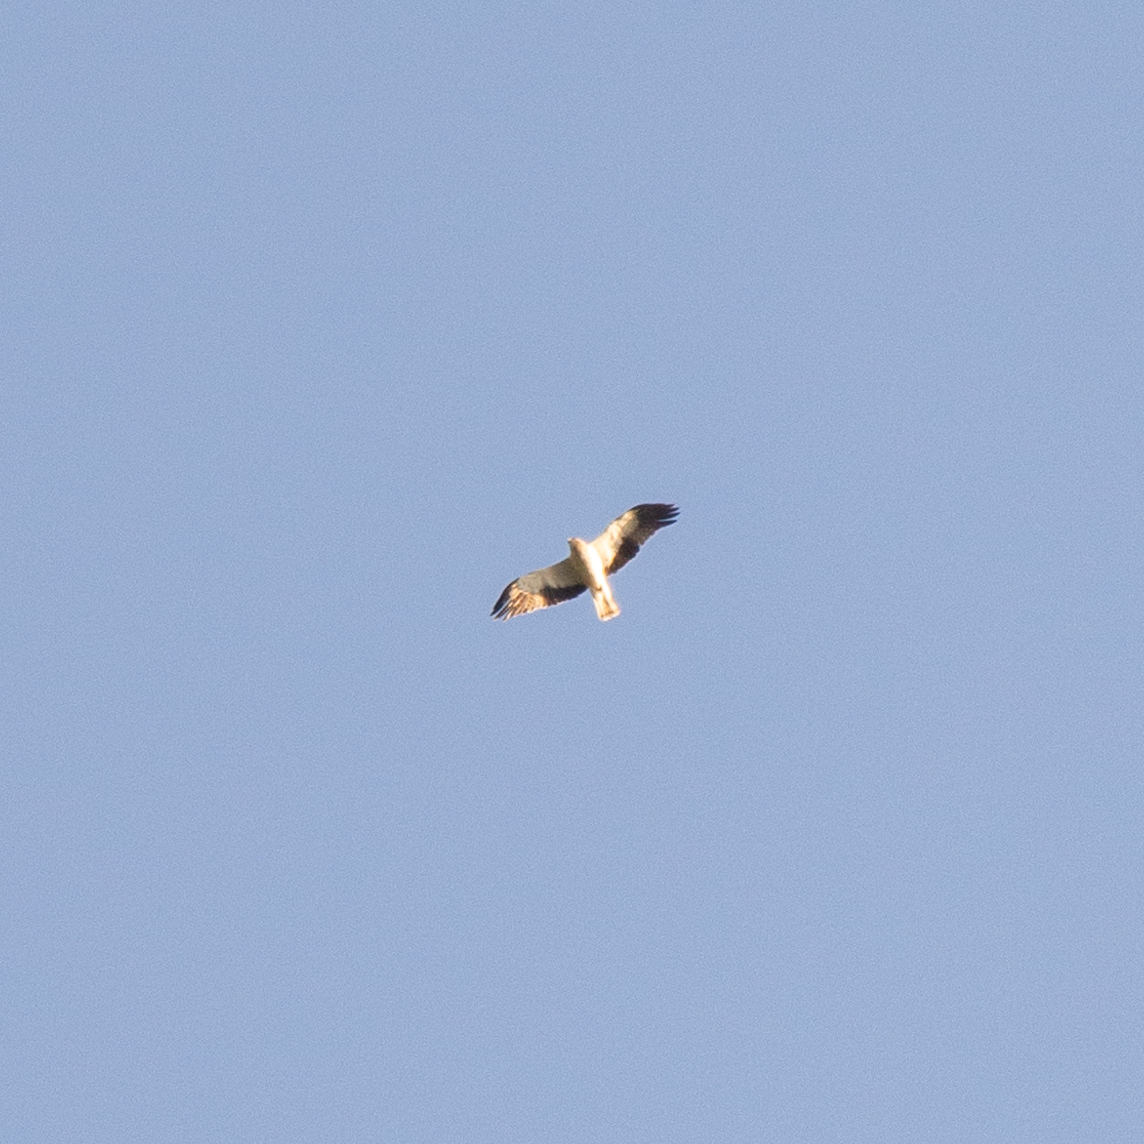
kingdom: Animalia
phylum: Chordata
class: Aves
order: Accipitriformes
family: Accipitridae
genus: Hieraaetus
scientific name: Hieraaetus pennatus
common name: Booted eagle
